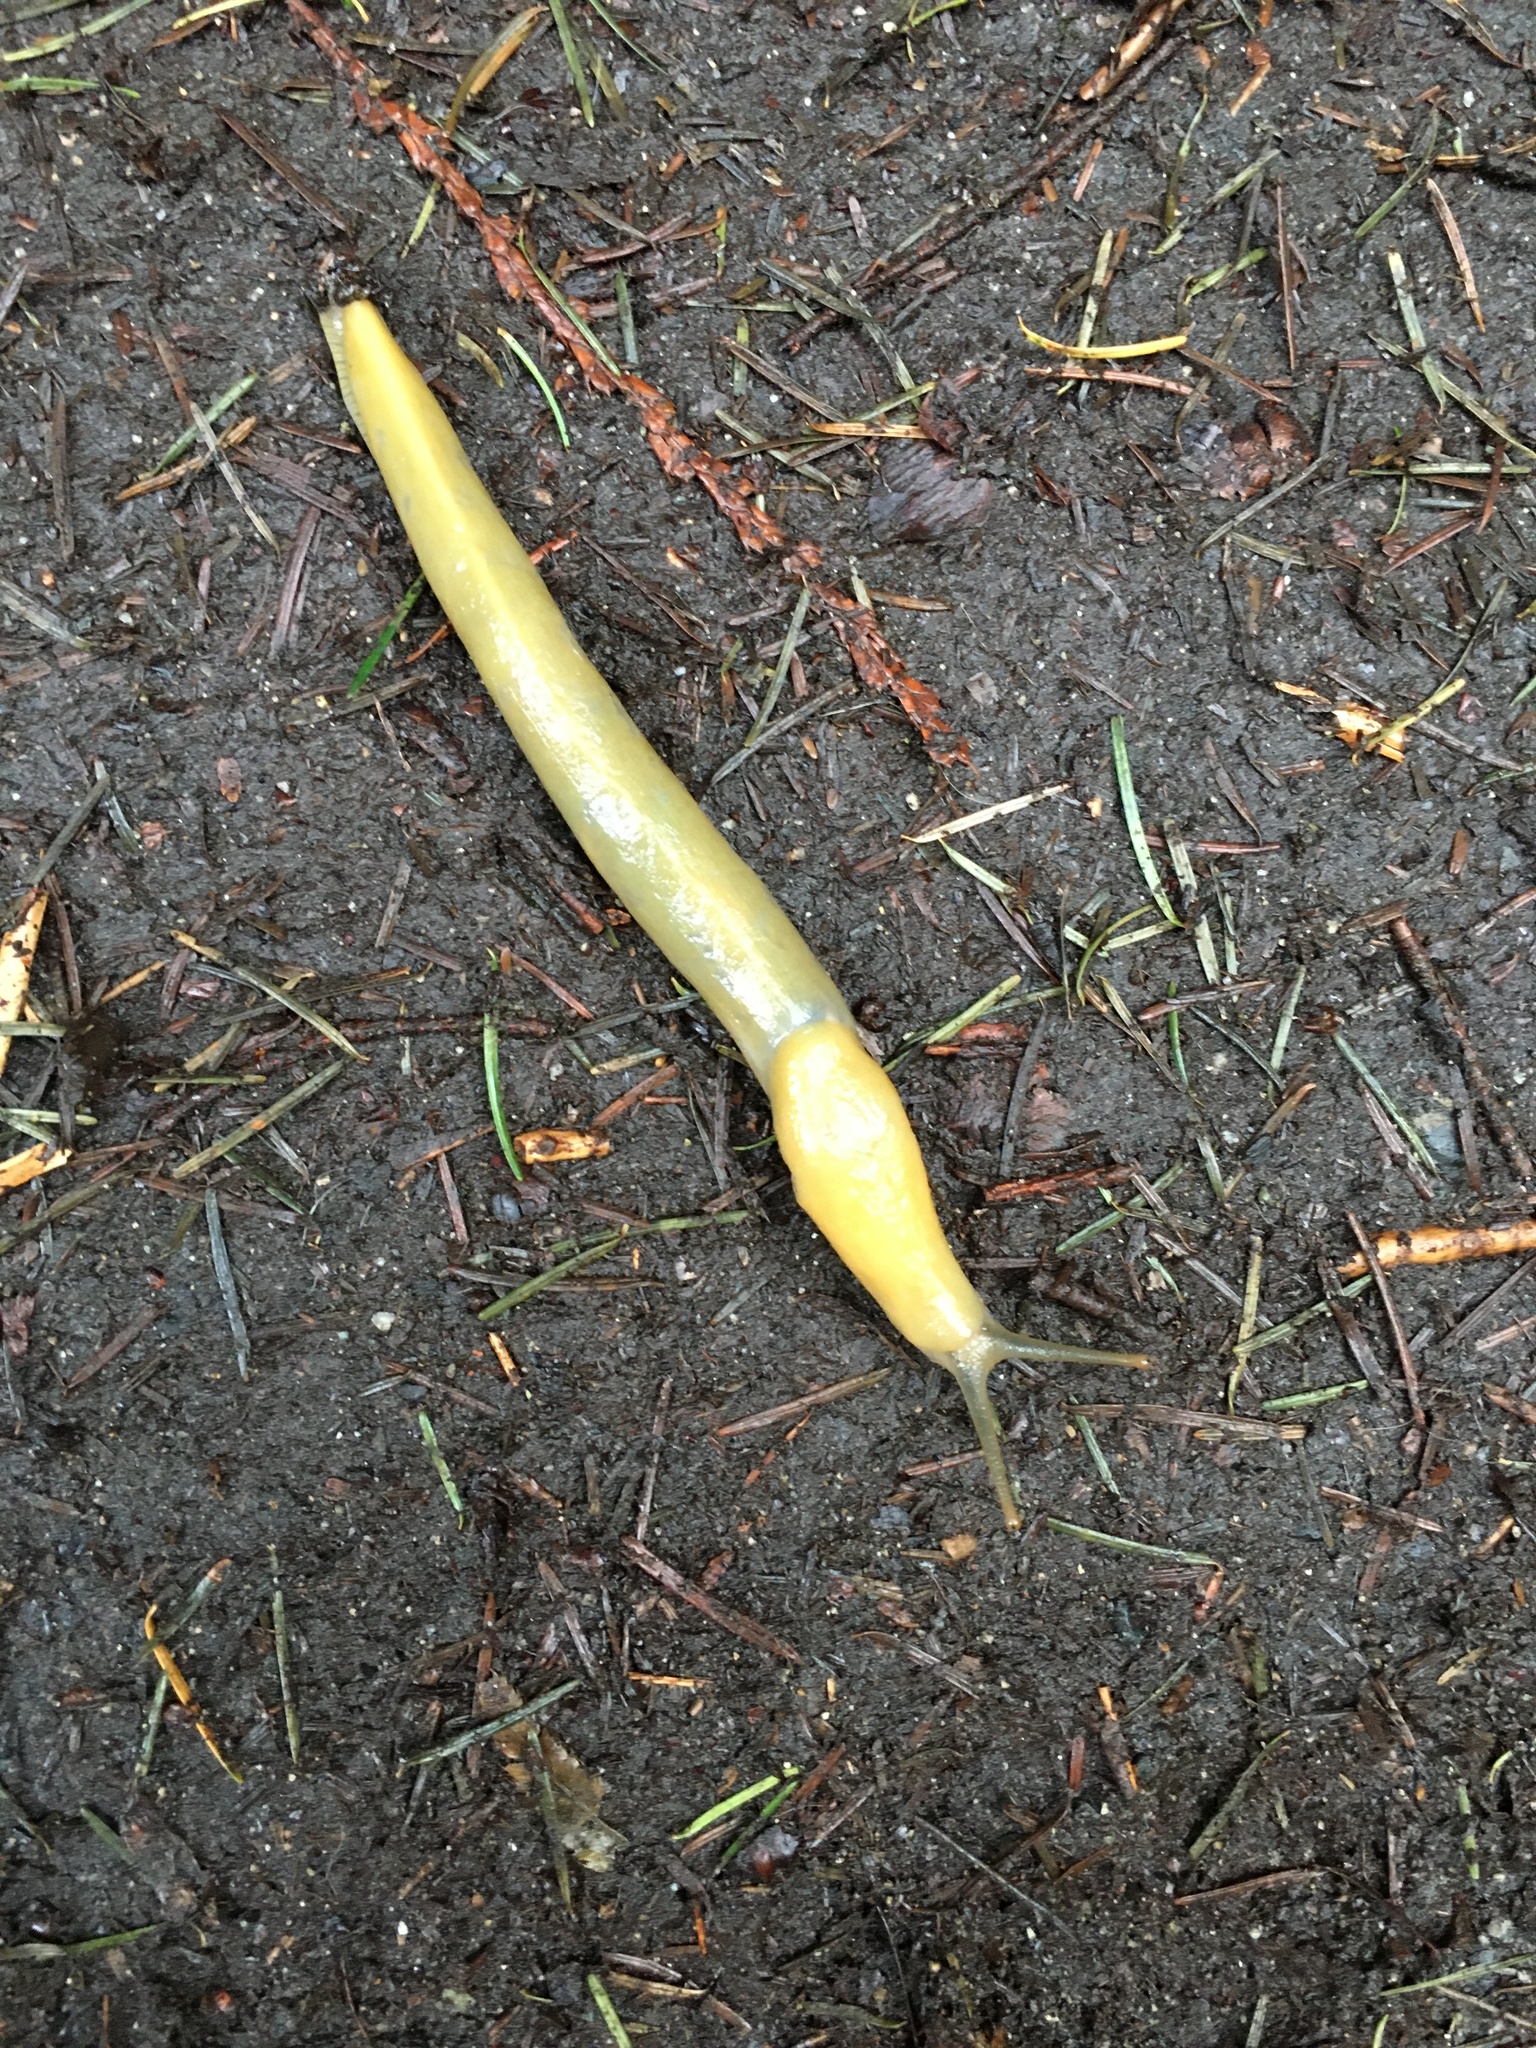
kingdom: Animalia
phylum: Mollusca
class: Gastropoda
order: Stylommatophora
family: Ariolimacidae
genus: Ariolimax
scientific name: Ariolimax columbianus
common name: Pacific banana slug
